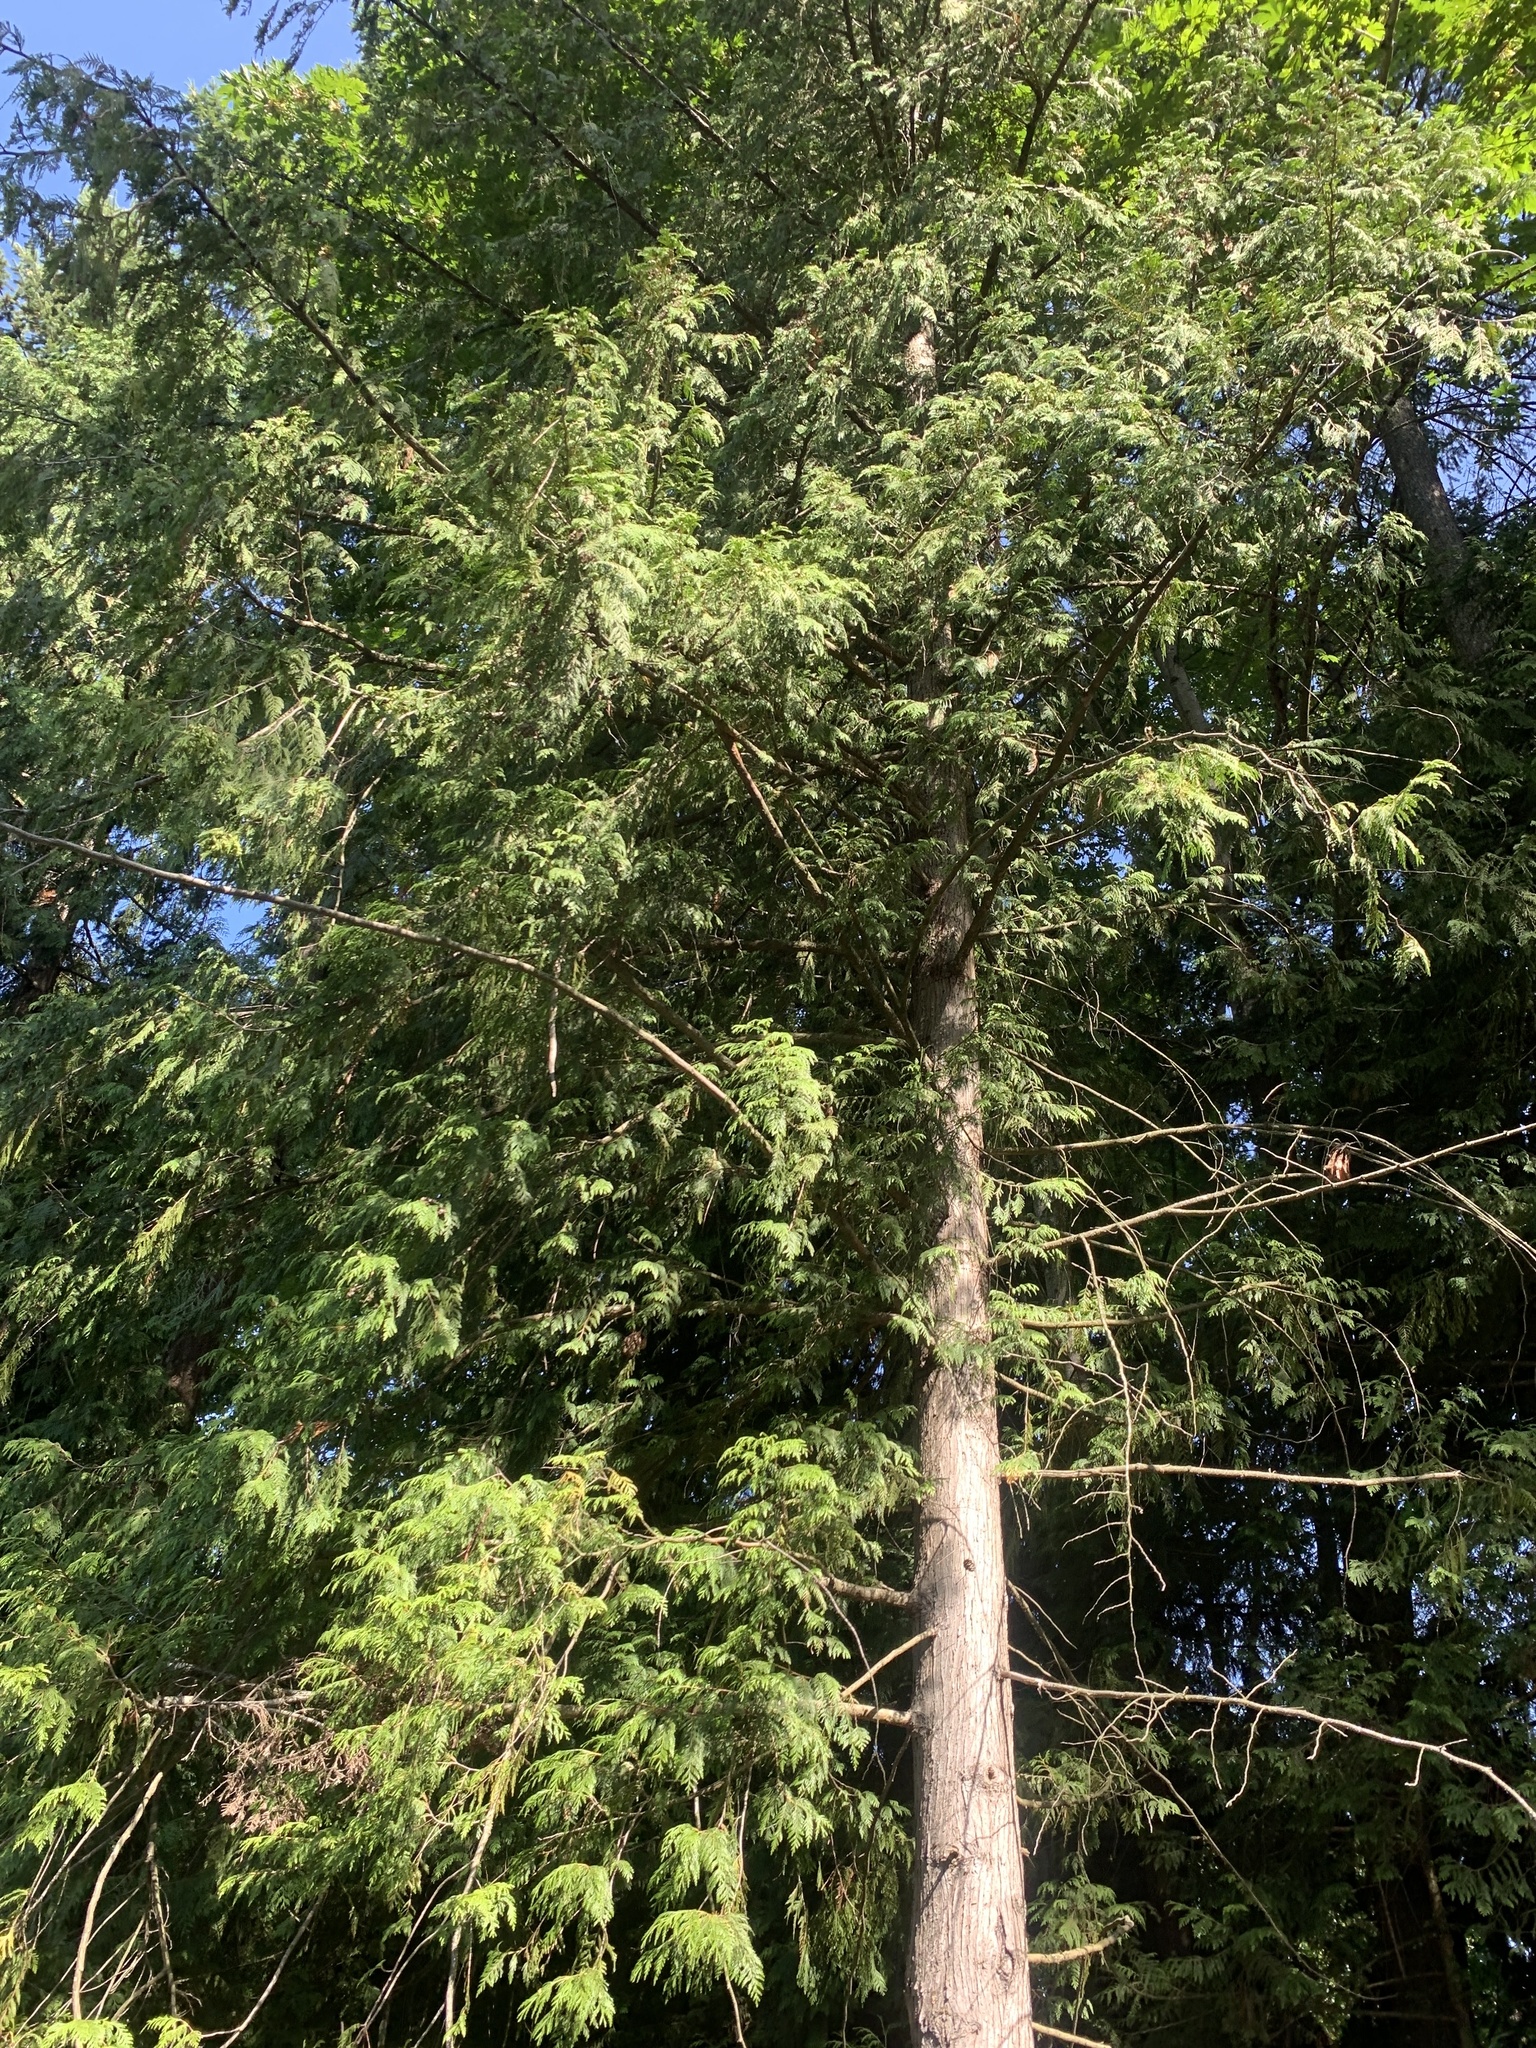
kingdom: Plantae
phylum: Tracheophyta
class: Pinopsida
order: Pinales
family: Cupressaceae
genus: Thuja
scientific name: Thuja plicata
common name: Western red-cedar
